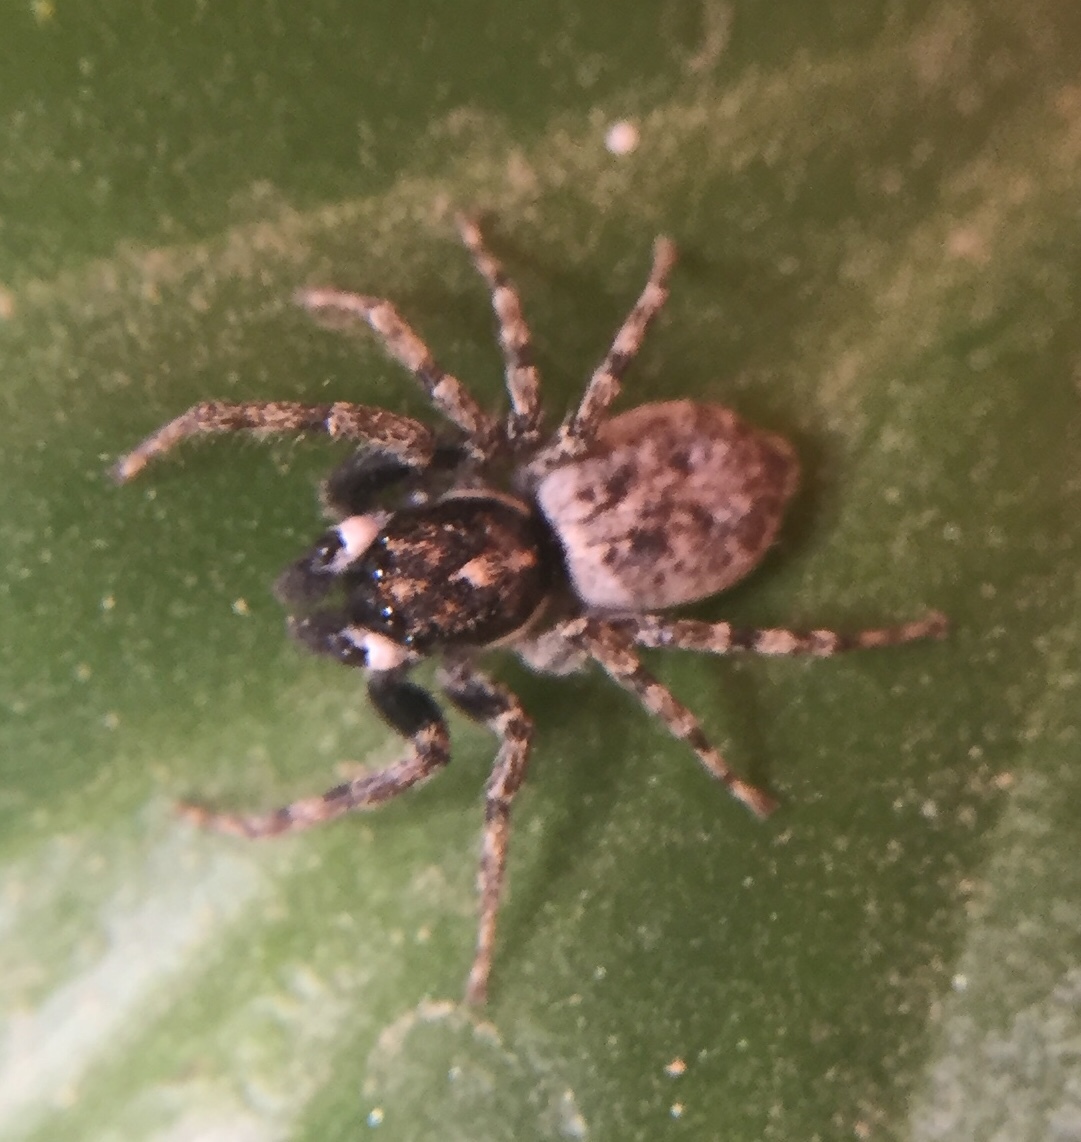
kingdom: Animalia
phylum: Arthropoda
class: Arachnida
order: Araneae
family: Salticidae
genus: Menemerus
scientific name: Menemerus semilimbatus
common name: Jumping spider
